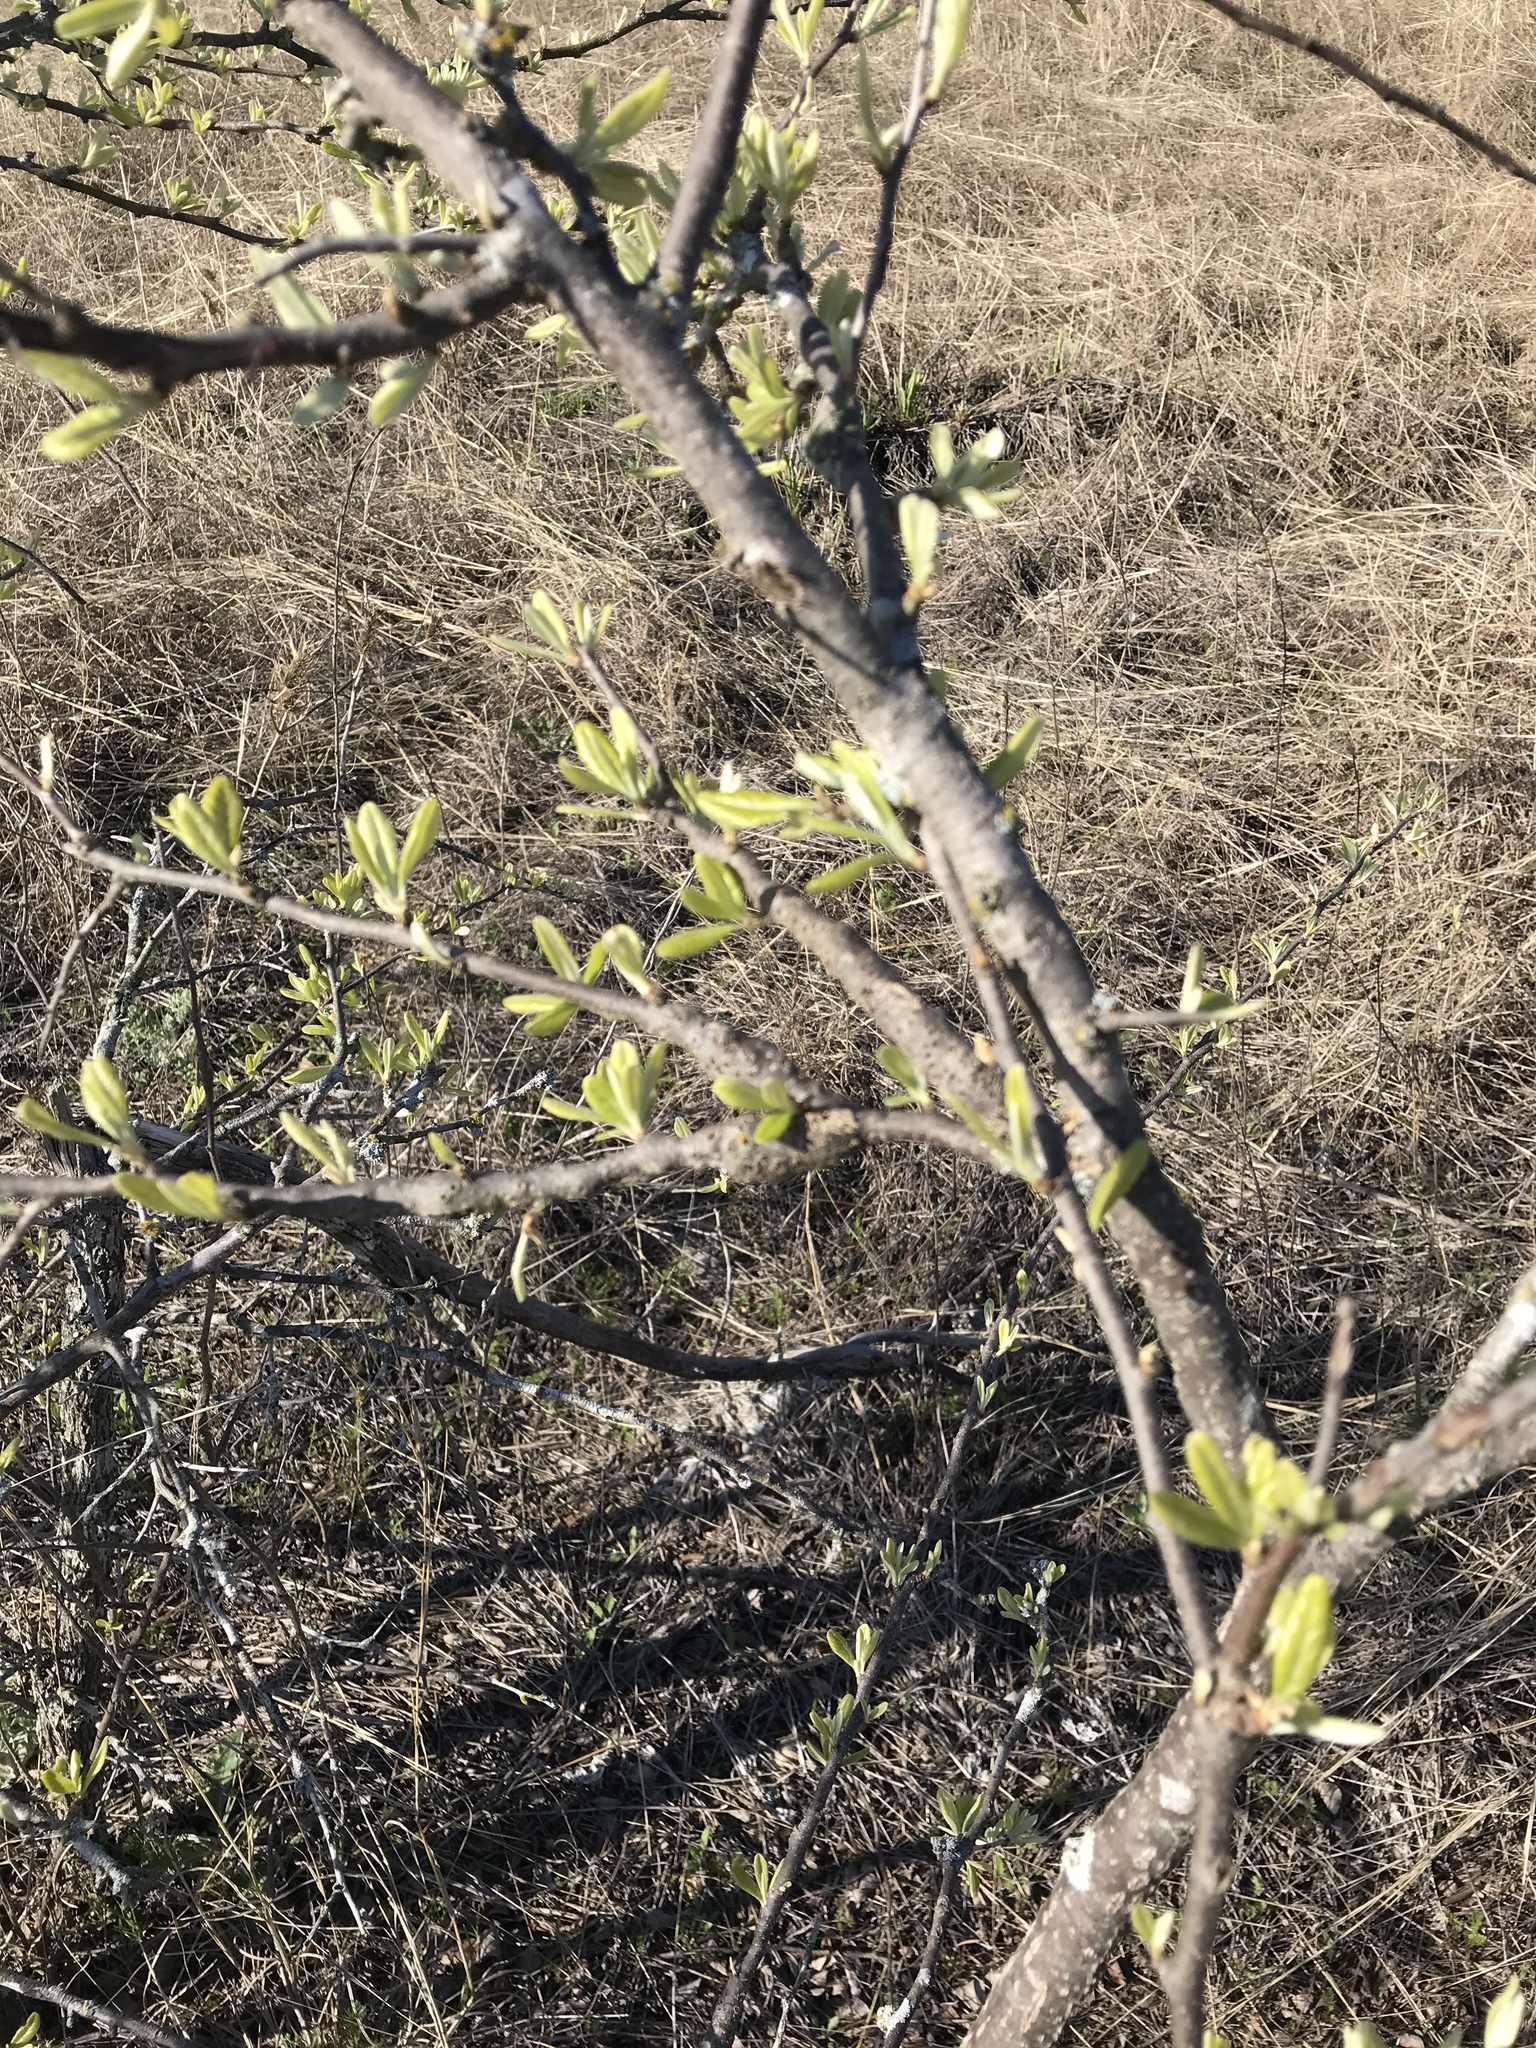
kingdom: Animalia
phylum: Arthropoda
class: Insecta
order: Diptera
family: Cecidomyiidae
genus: Bruggmanniella
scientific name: Bruggmanniella bumeliae
